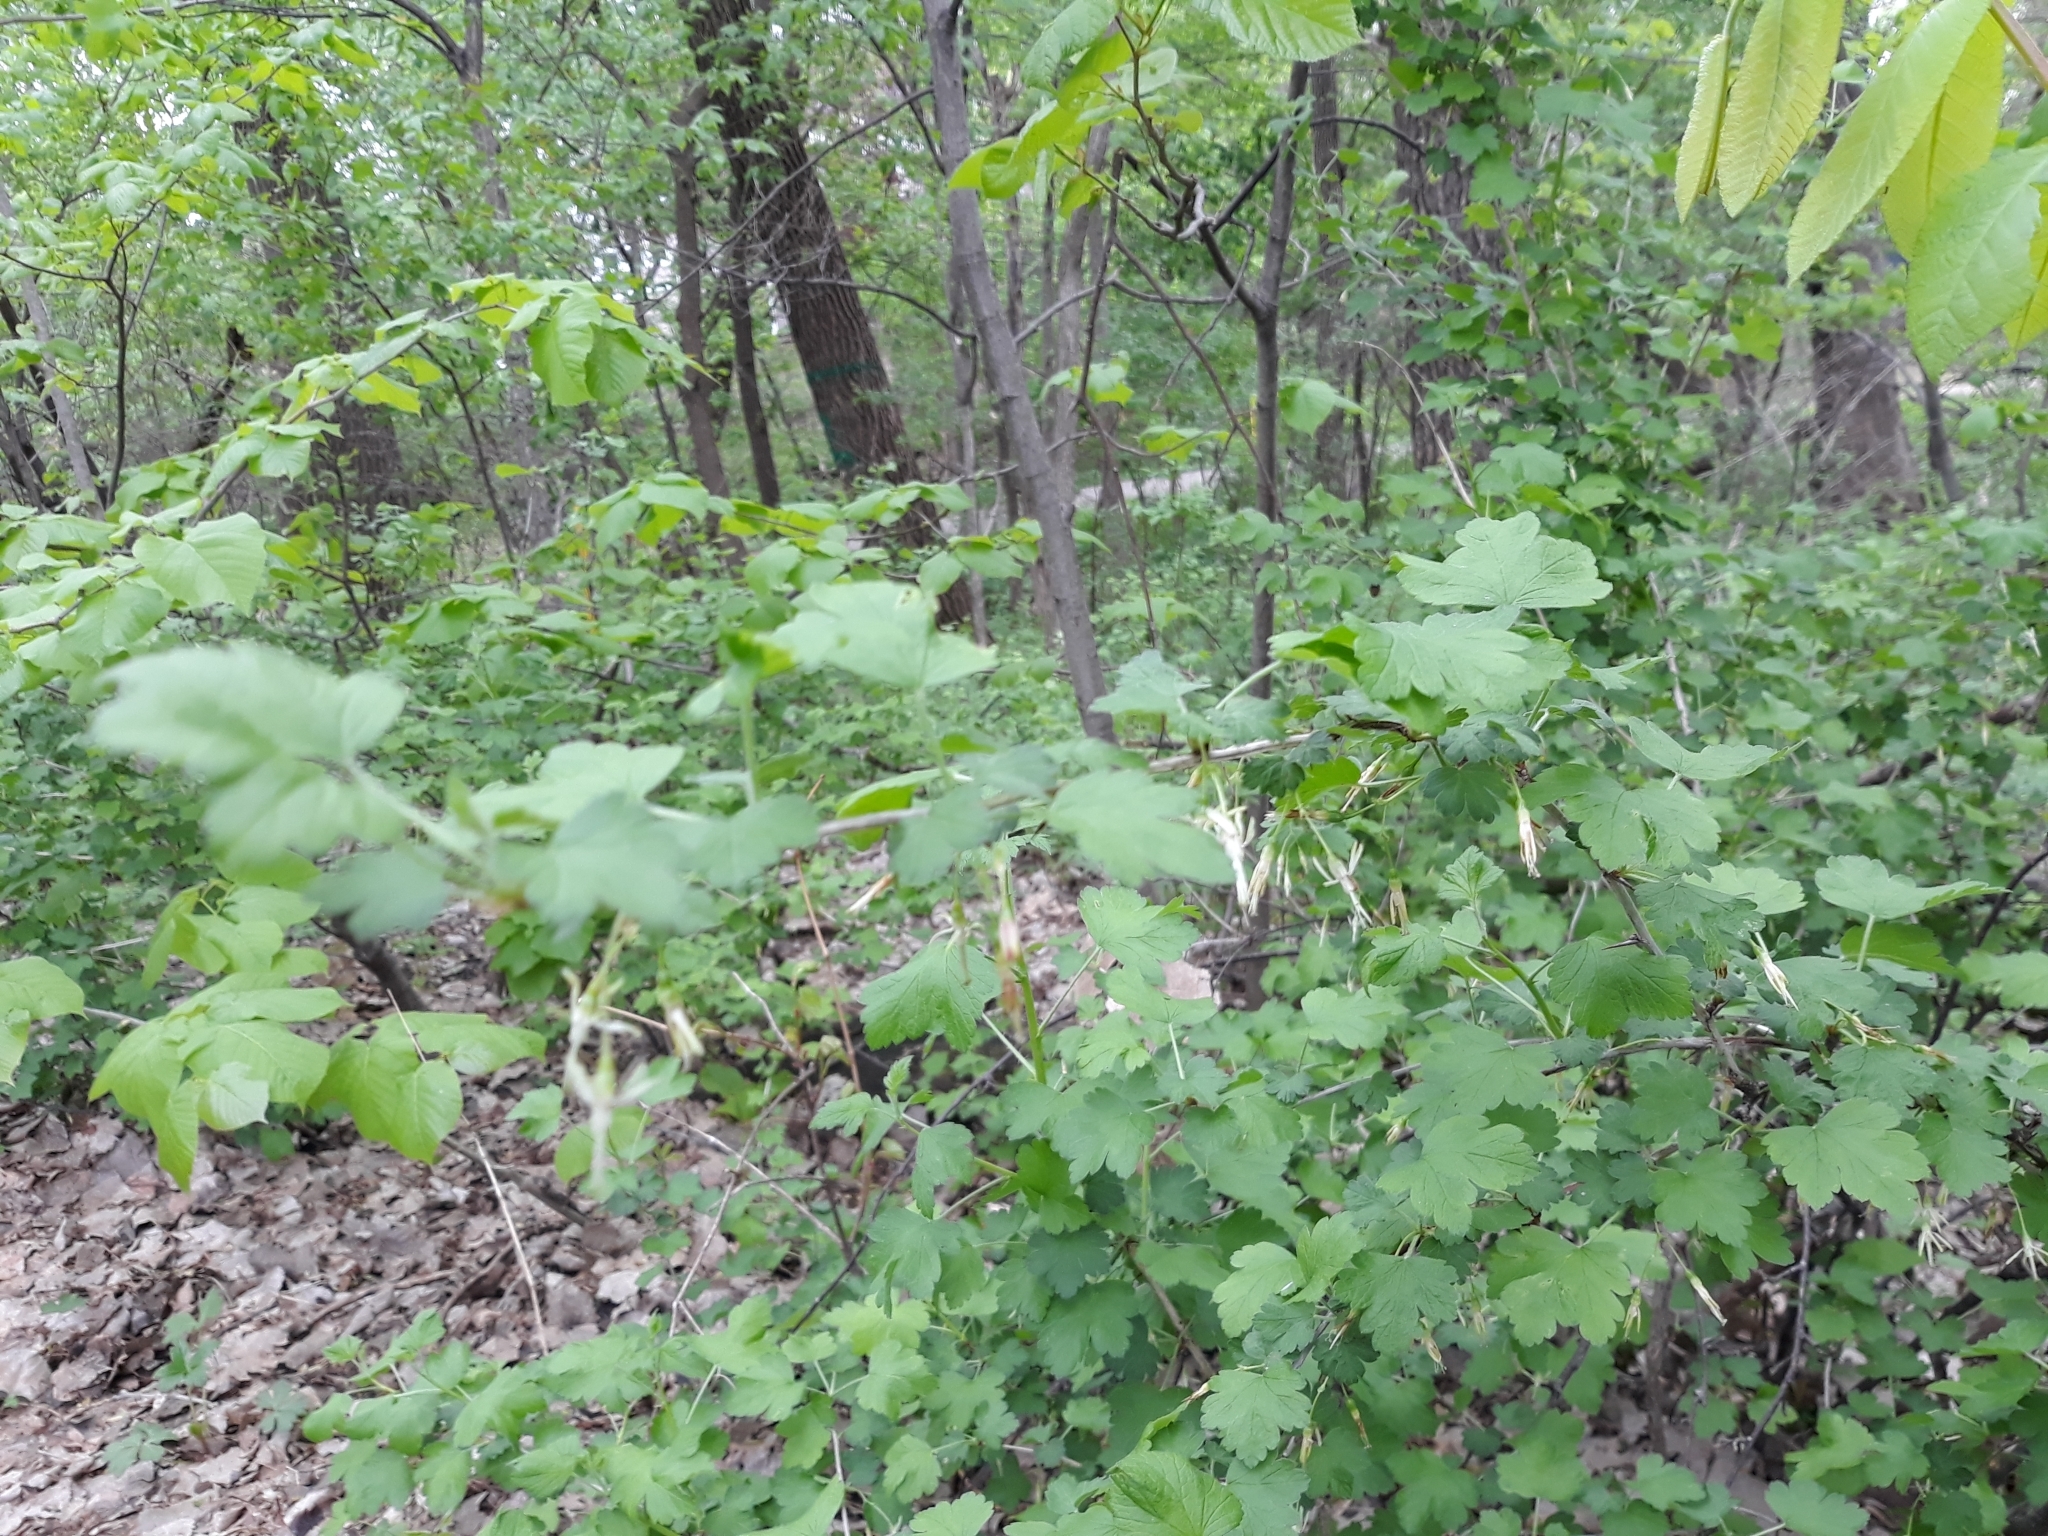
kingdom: Plantae
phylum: Tracheophyta
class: Magnoliopsida
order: Saxifragales
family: Grossulariaceae
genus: Ribes
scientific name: Ribes missouriense
